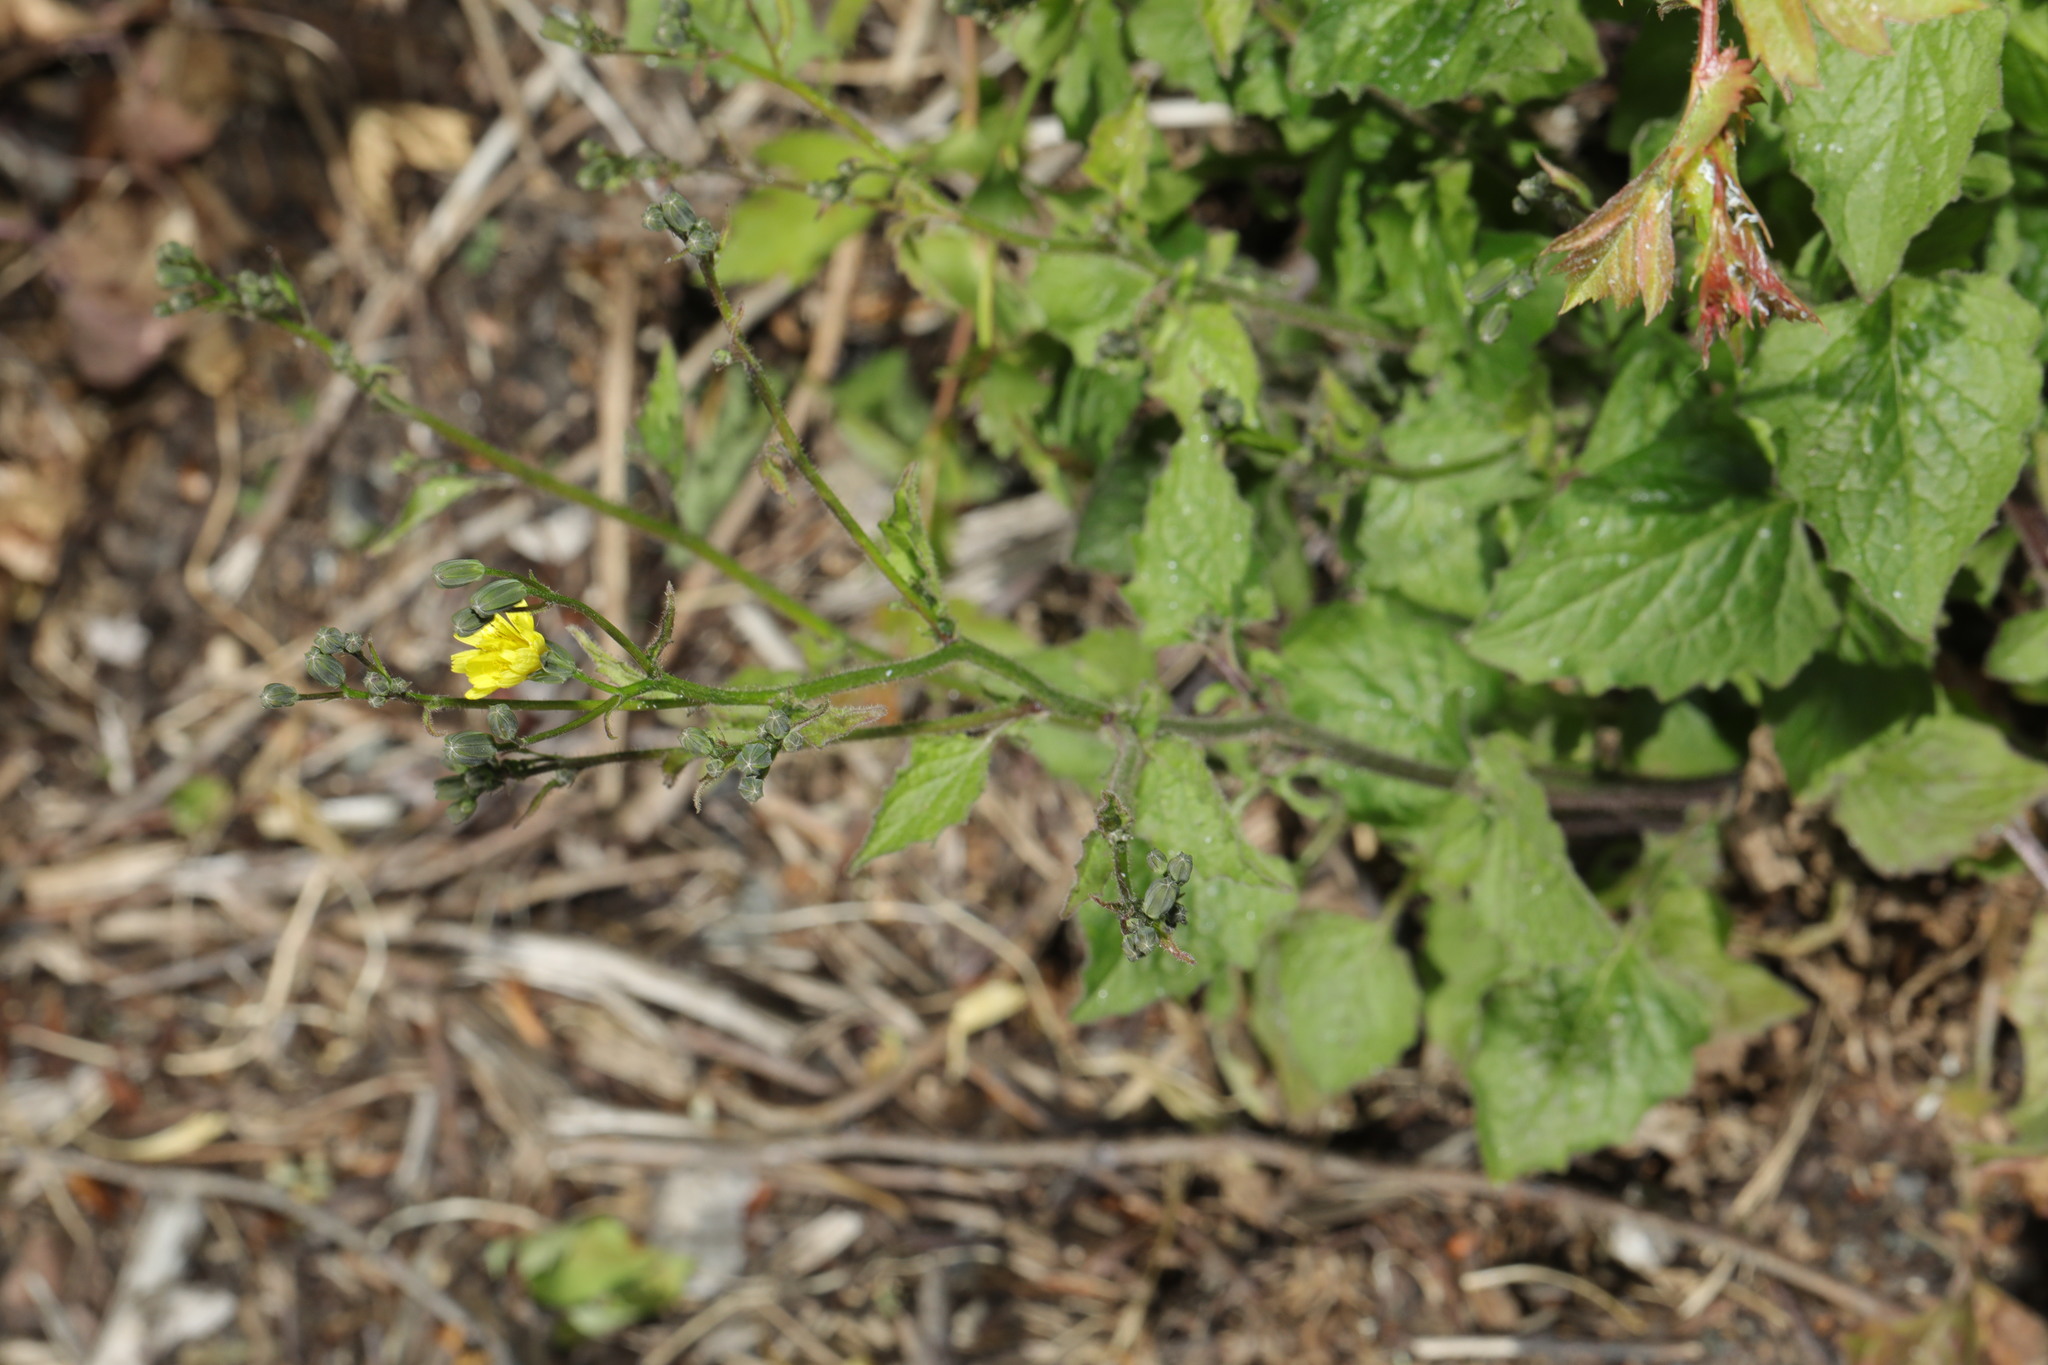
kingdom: Plantae
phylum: Tracheophyta
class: Magnoliopsida
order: Asterales
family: Asteraceae
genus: Lapsana
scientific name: Lapsana communis
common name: Nipplewort
